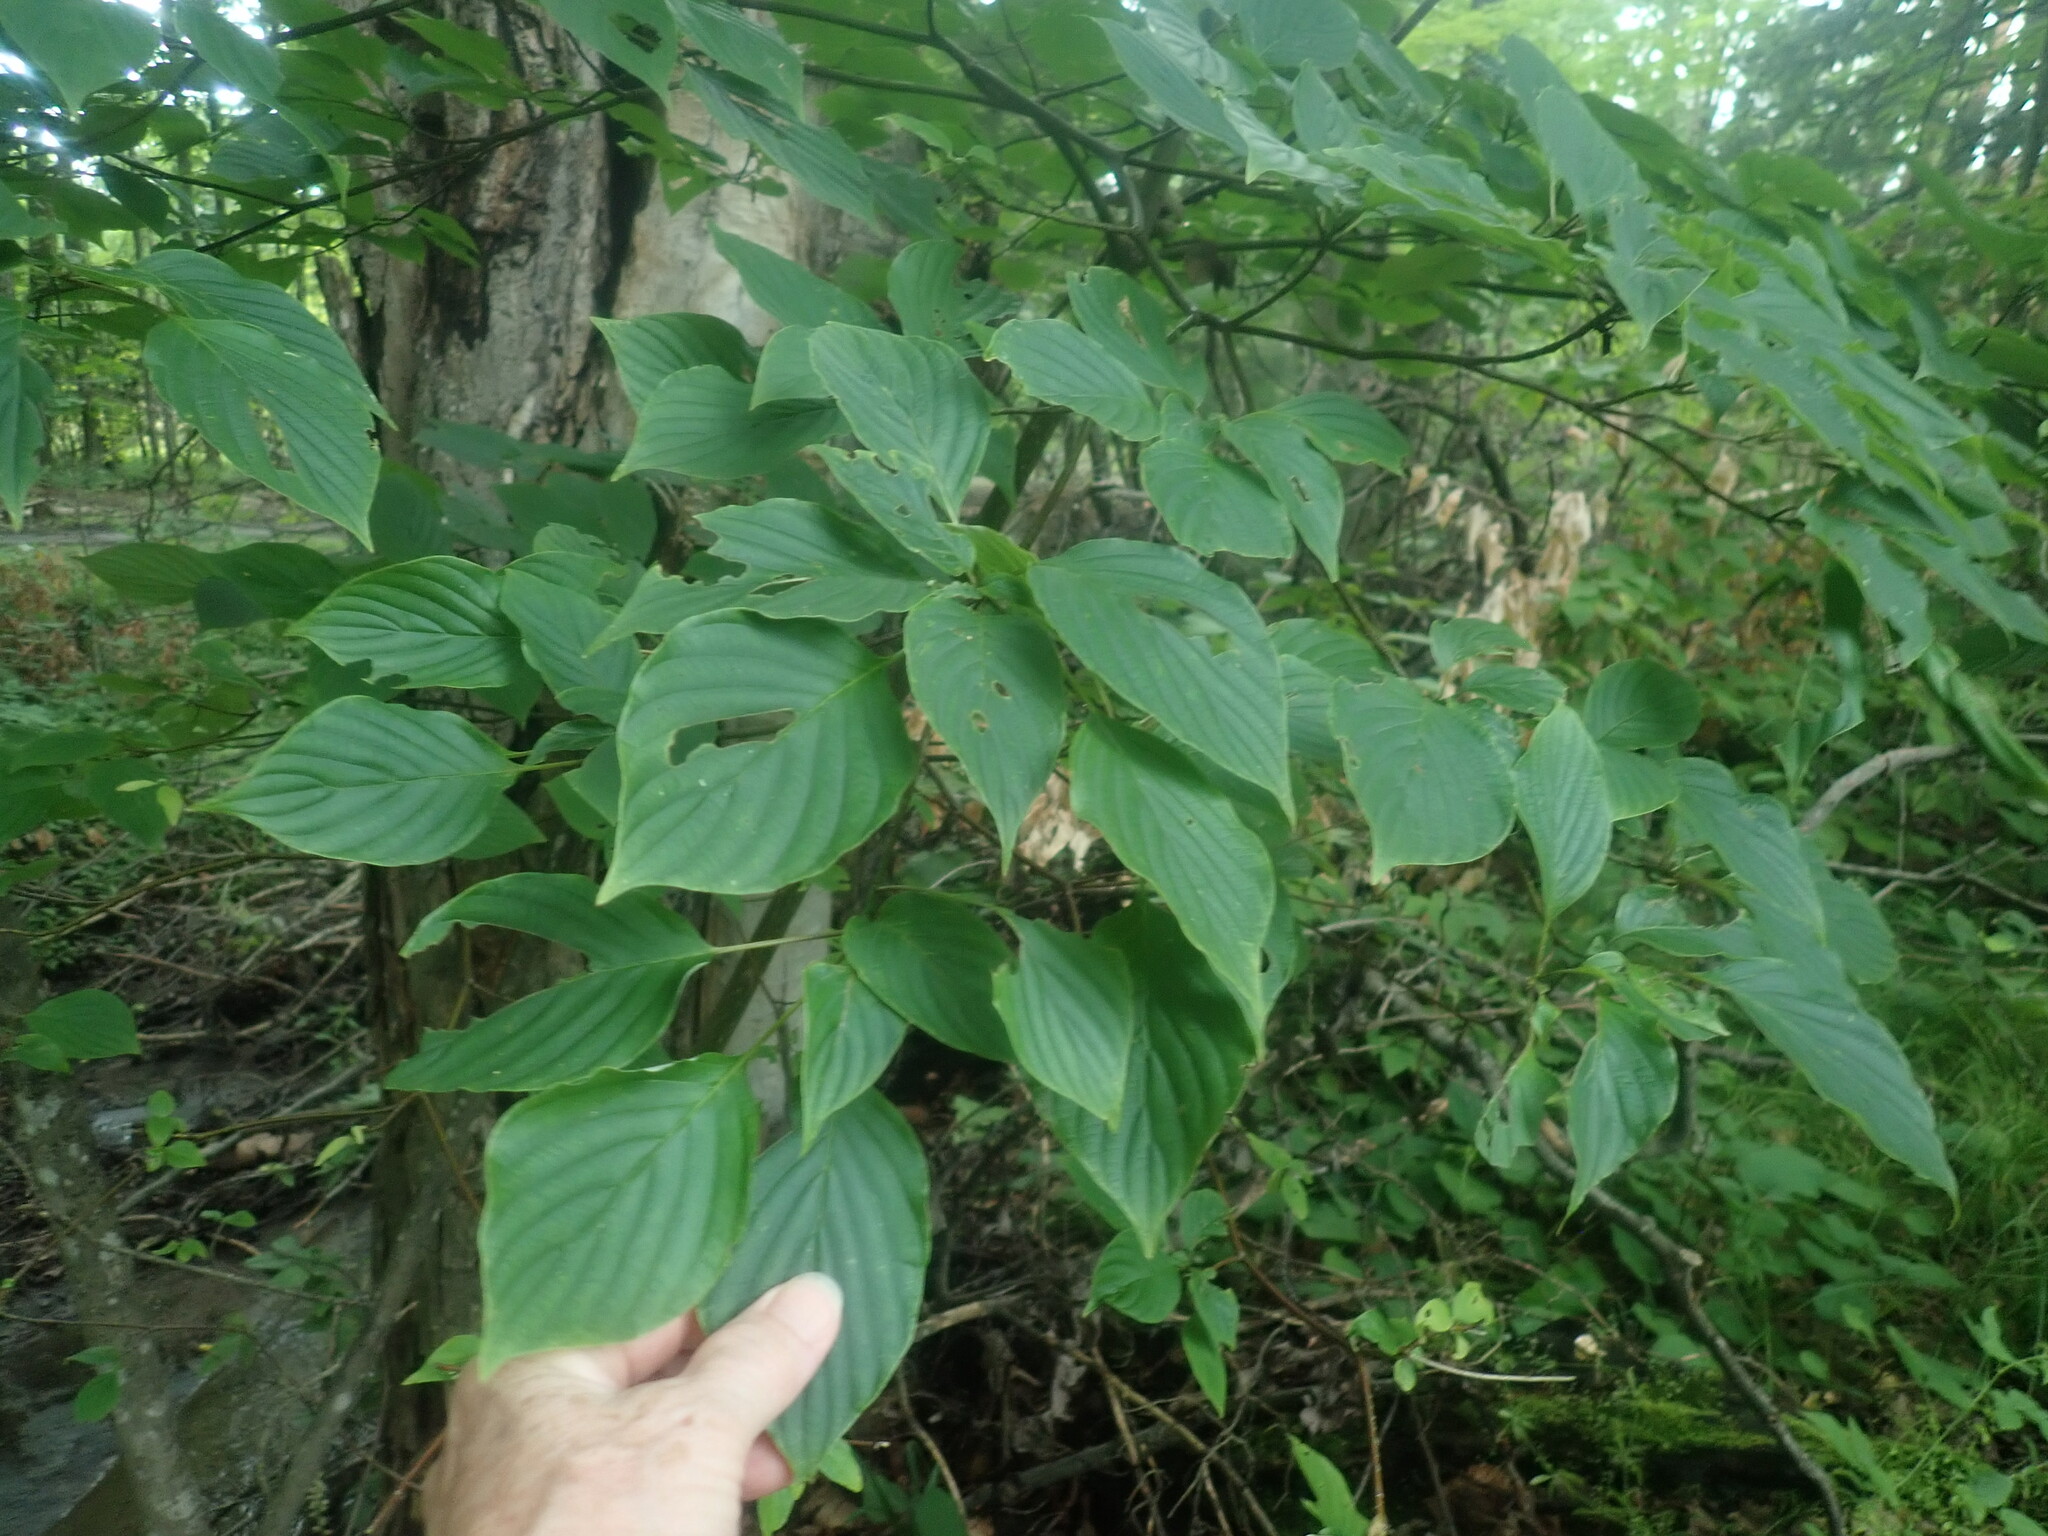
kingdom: Plantae
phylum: Tracheophyta
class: Magnoliopsida
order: Cornales
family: Cornaceae
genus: Cornus
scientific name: Cornus alternifolia
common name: Pagoda dogwood
